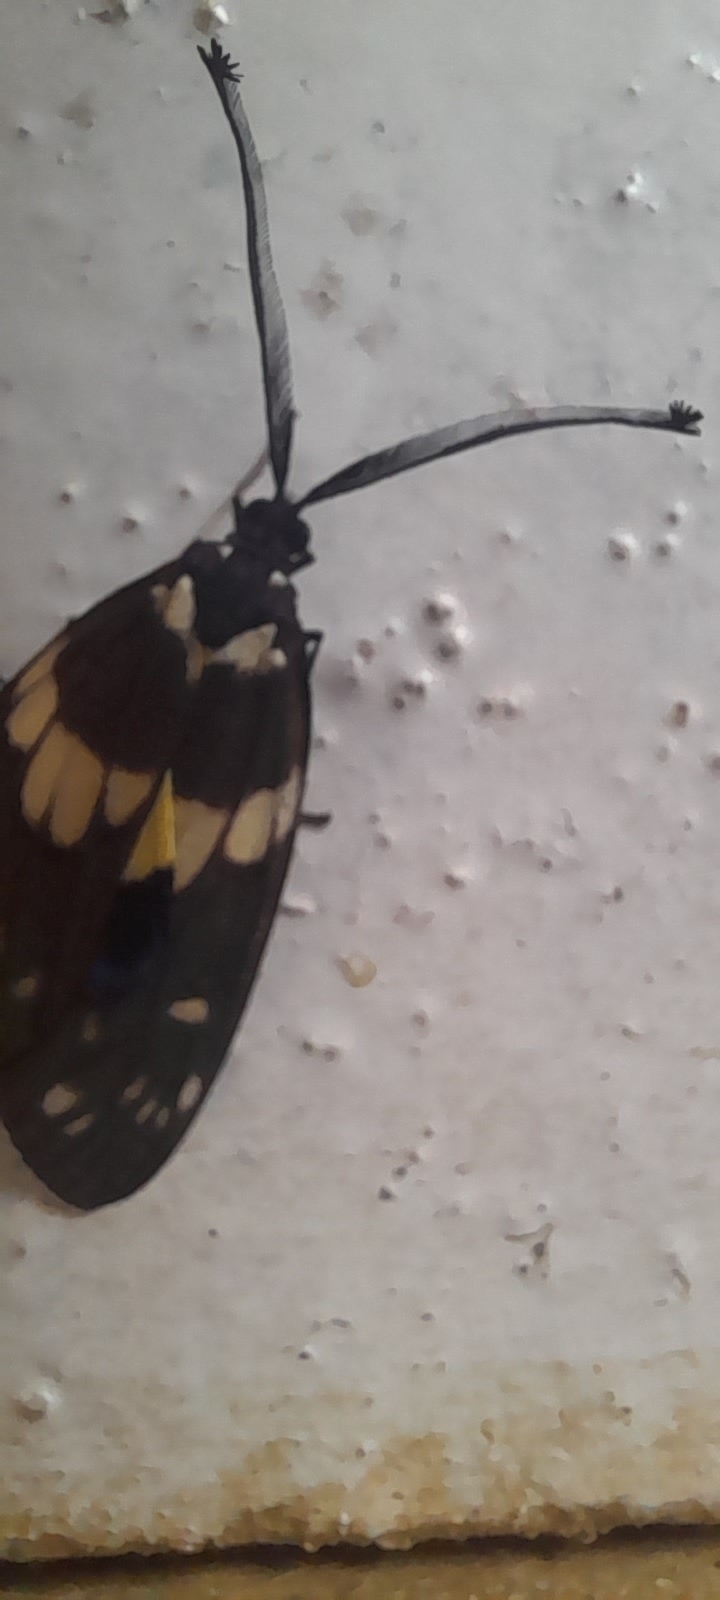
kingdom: Animalia
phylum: Arthropoda
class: Insecta
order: Lepidoptera
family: Zygaenidae
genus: Eterusia
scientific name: Eterusia aedea
